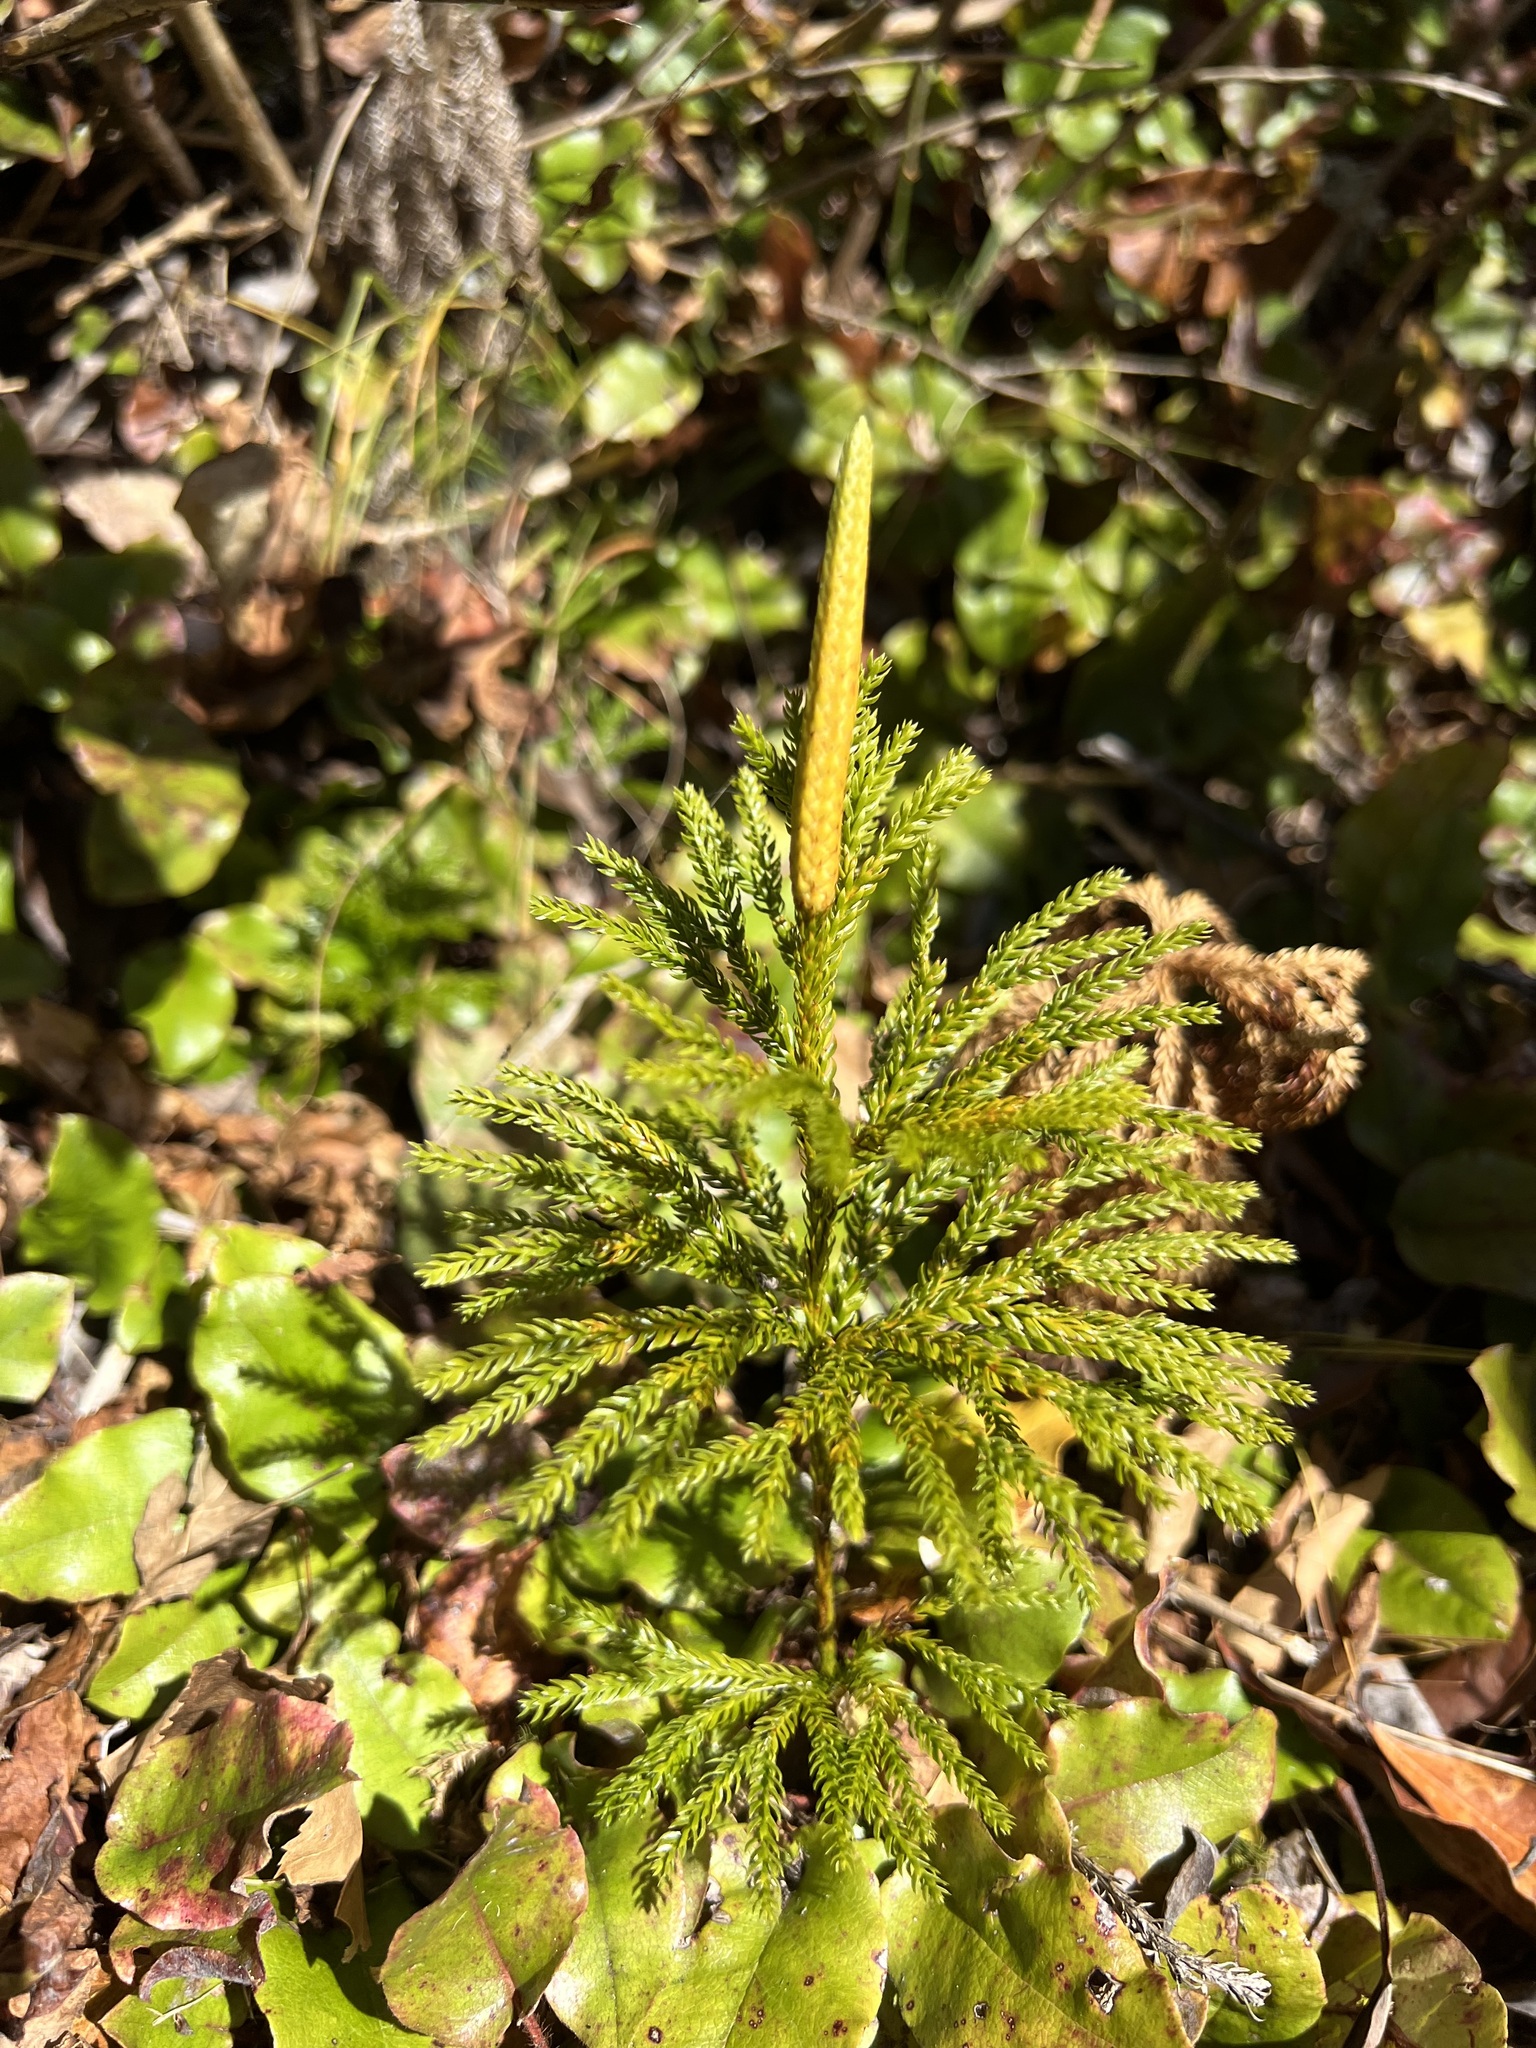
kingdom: Plantae
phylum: Tracheophyta
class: Lycopodiopsida
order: Lycopodiales
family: Lycopodiaceae
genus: Dendrolycopodium
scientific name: Dendrolycopodium obscurum
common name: Common ground-pine
